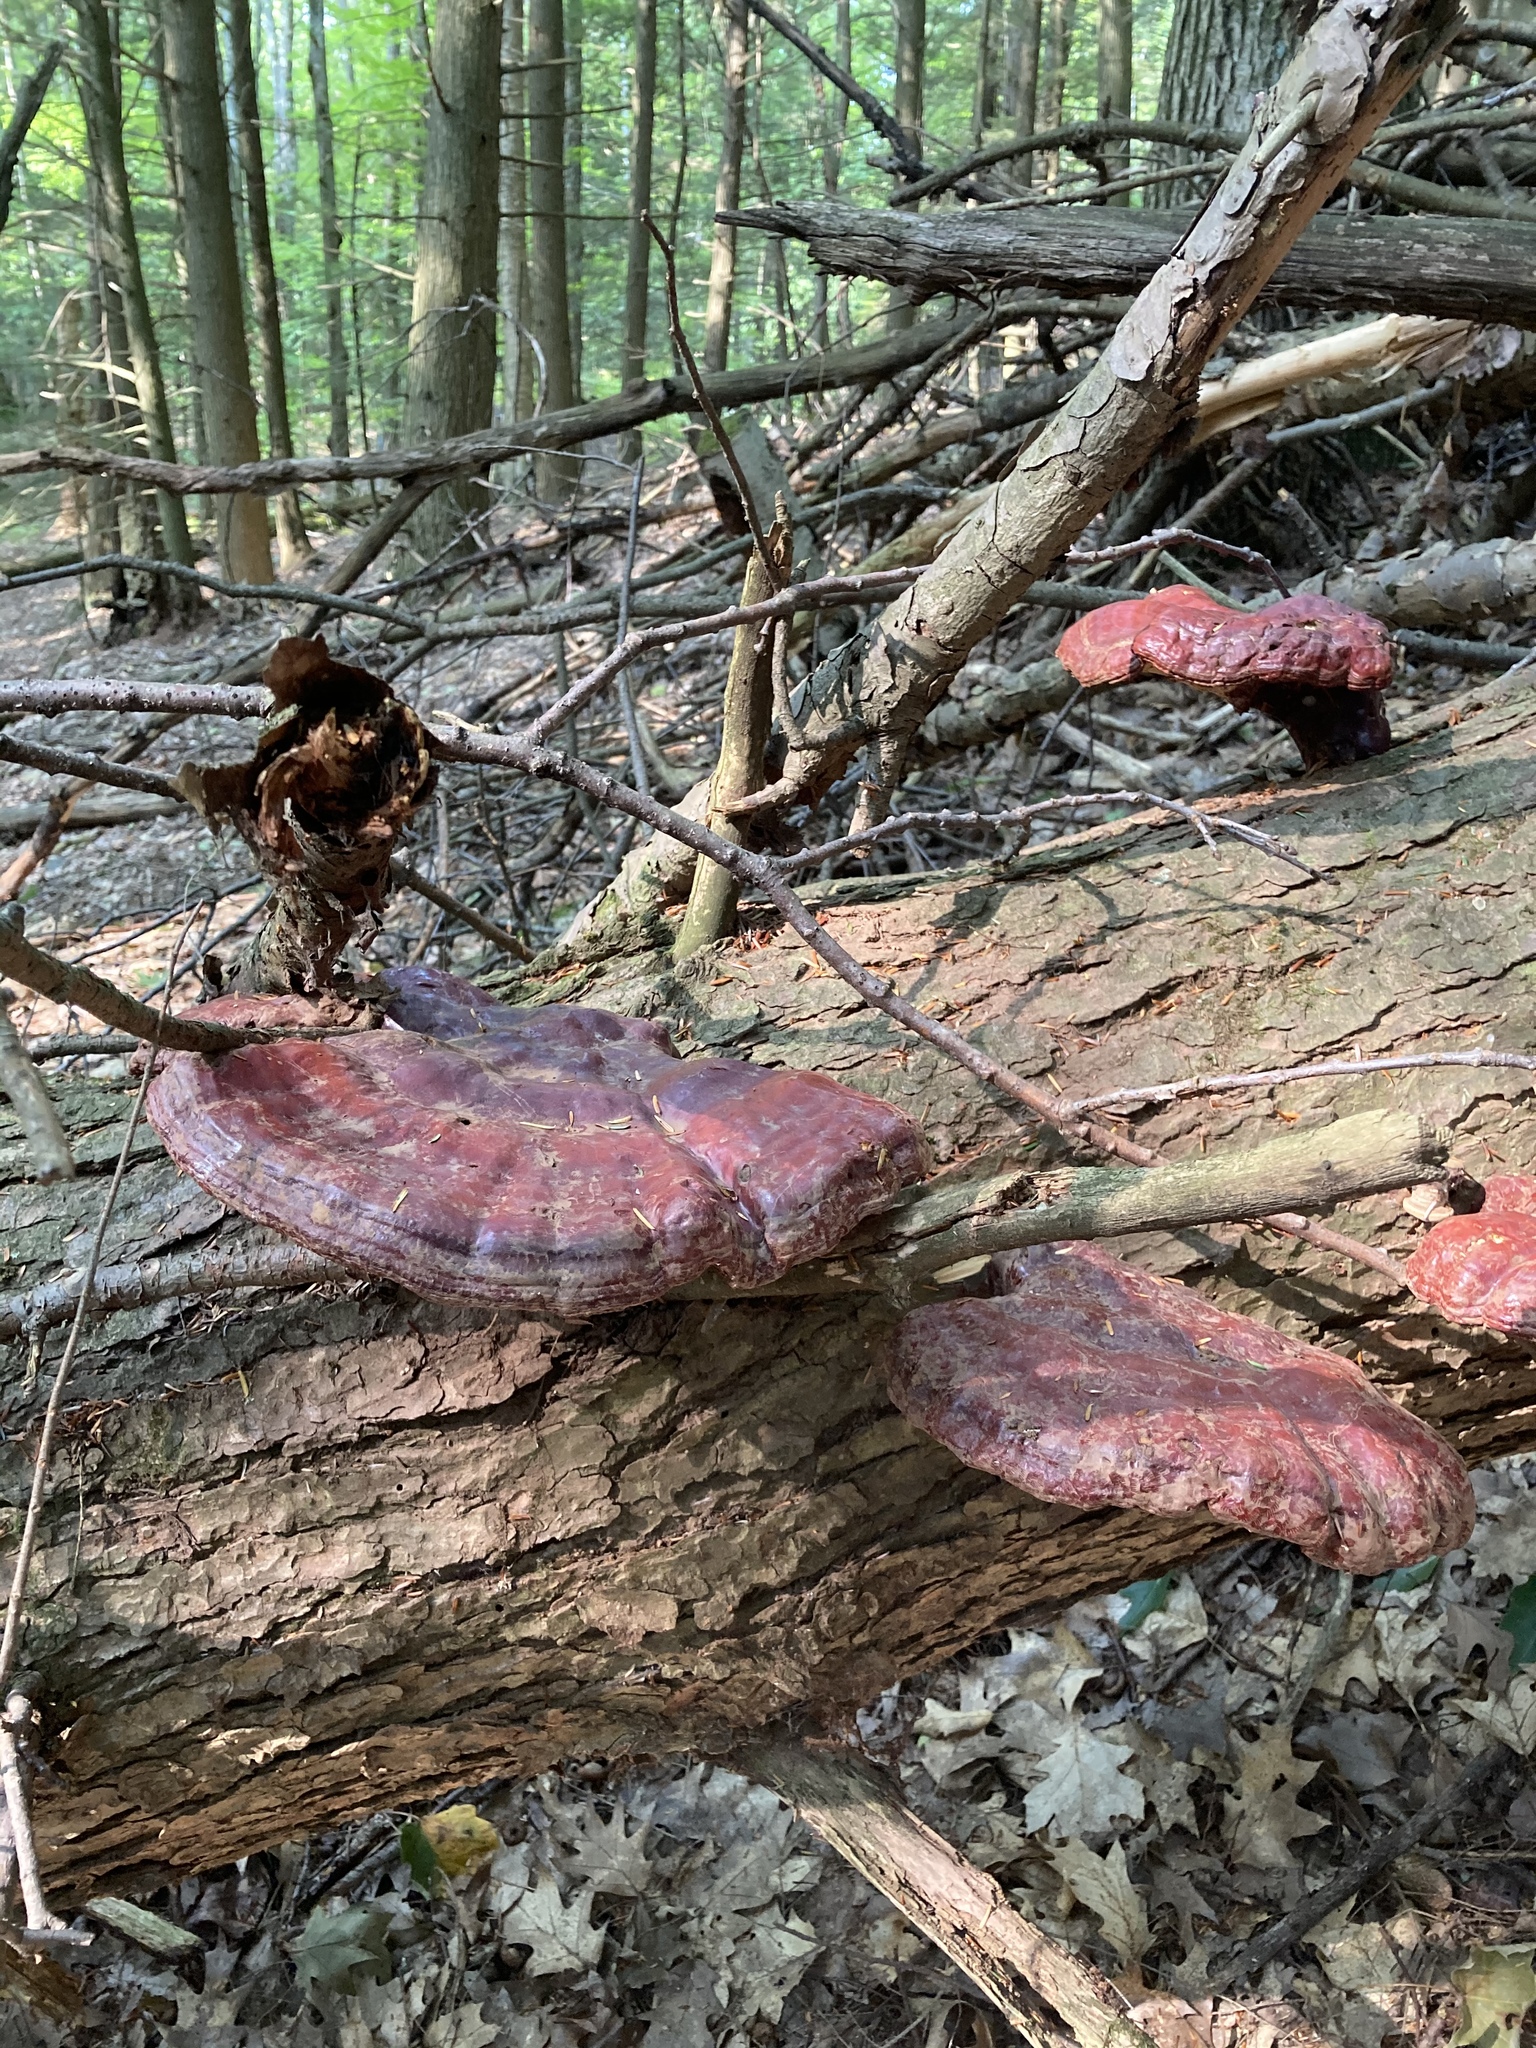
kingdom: Fungi
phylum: Basidiomycota
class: Agaricomycetes
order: Polyporales
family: Polyporaceae
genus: Ganoderma
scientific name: Ganoderma tsugae
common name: Hemlock varnish shelf
